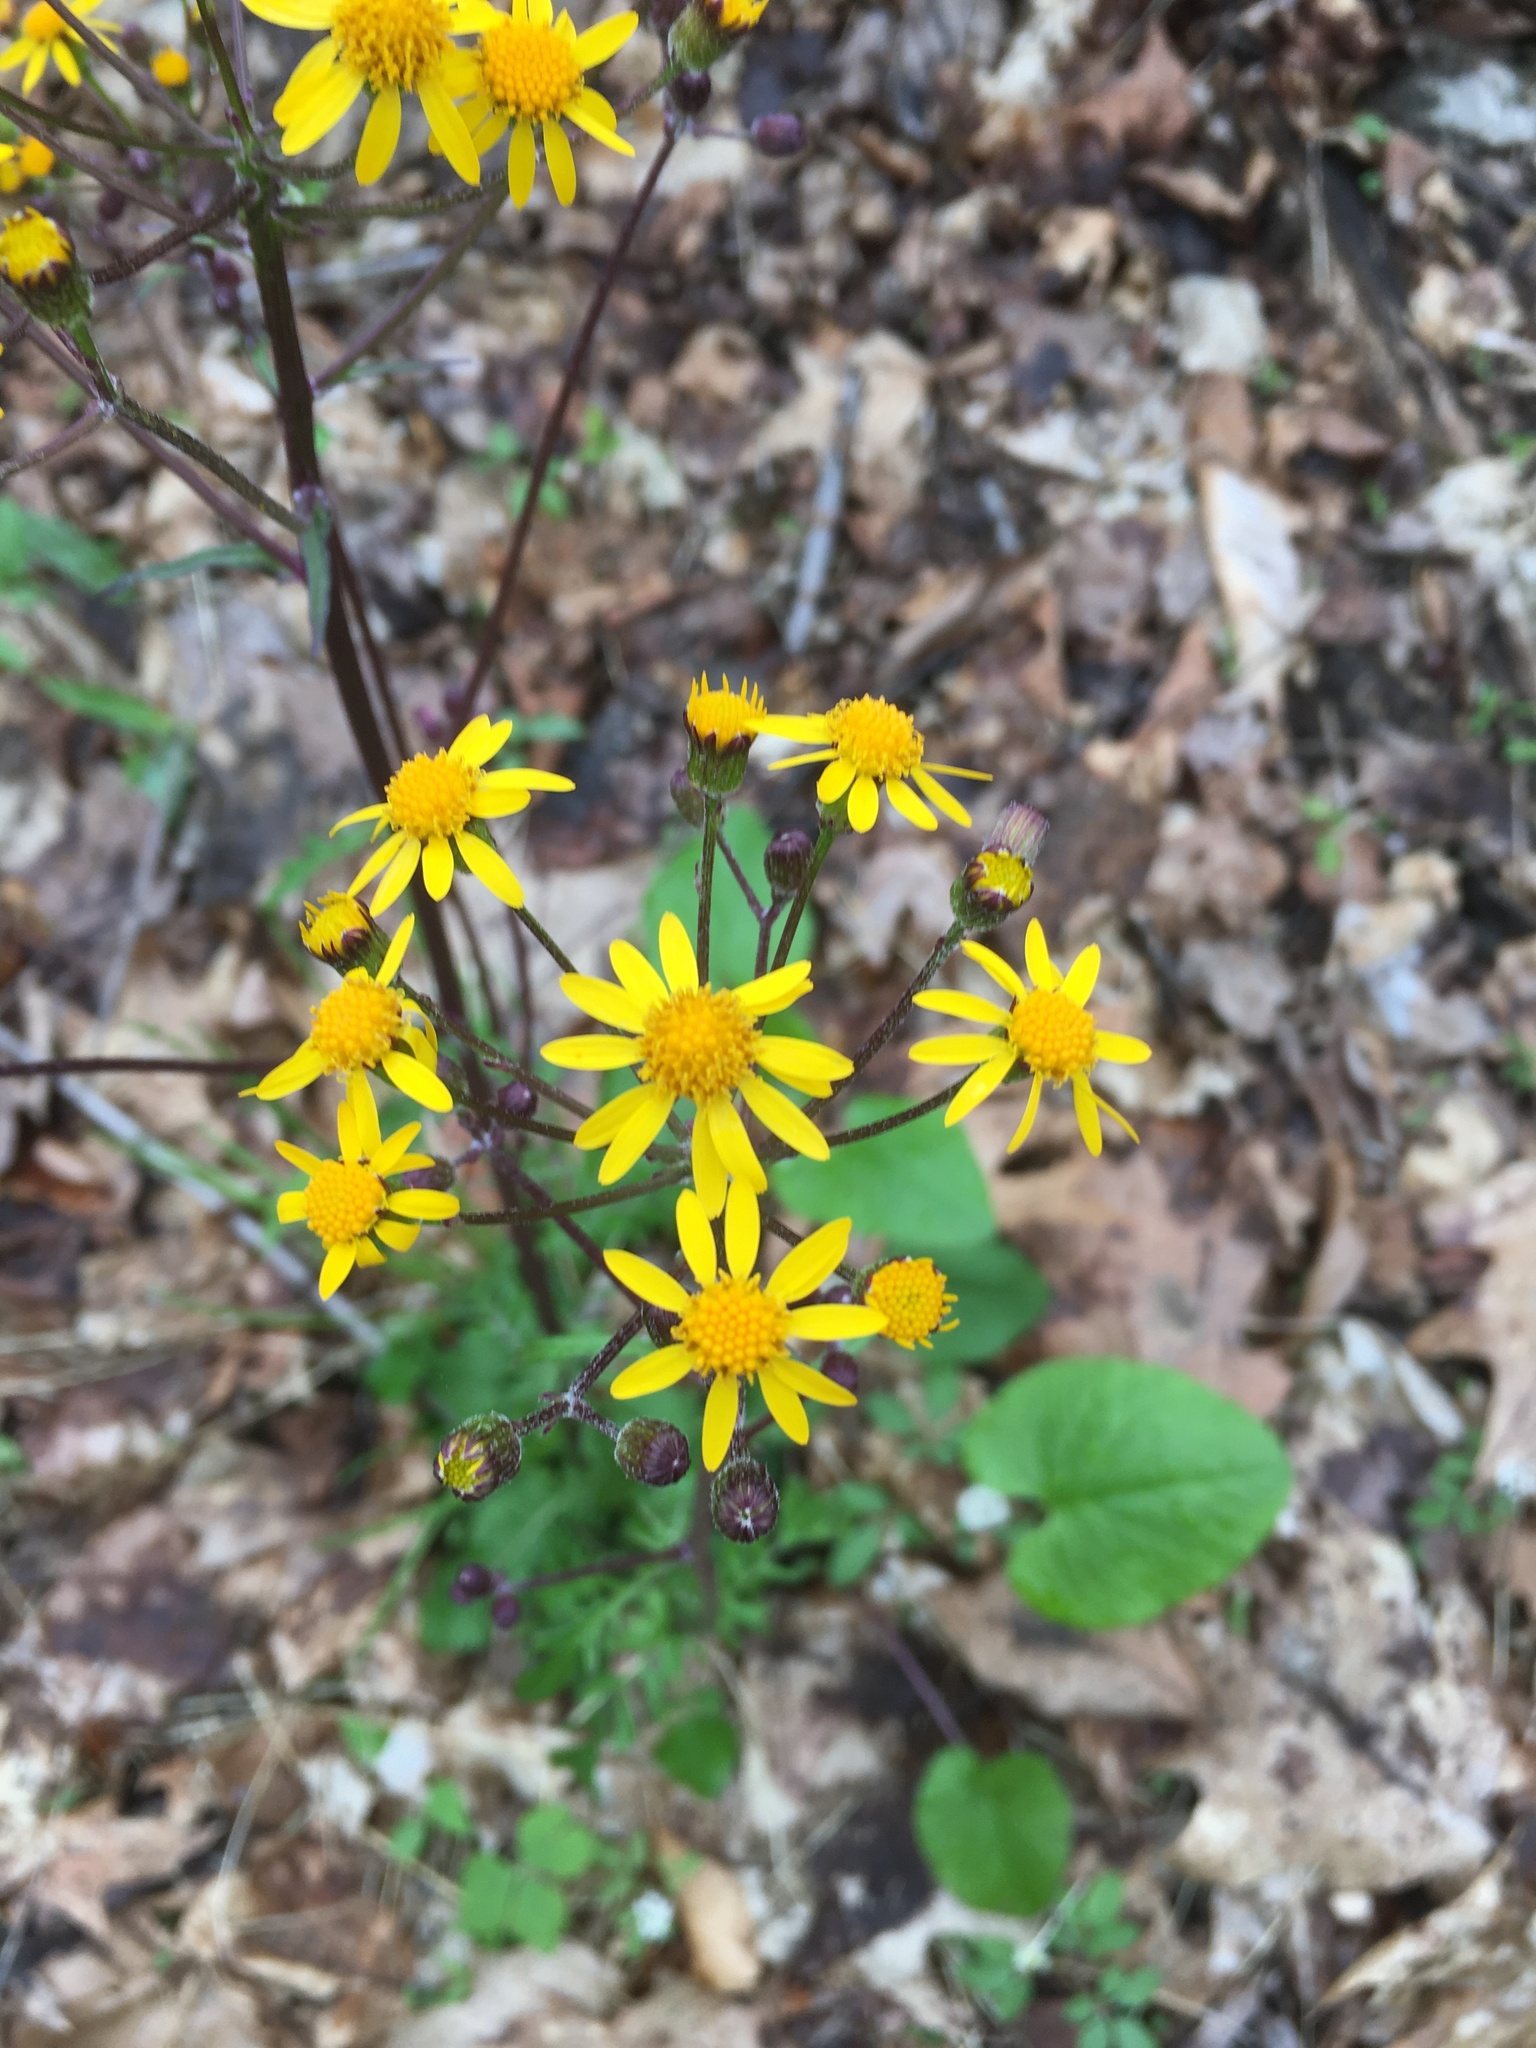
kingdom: Plantae
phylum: Tracheophyta
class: Magnoliopsida
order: Asterales
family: Asteraceae
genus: Packera
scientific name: Packera aurea
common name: Golden groundsel
